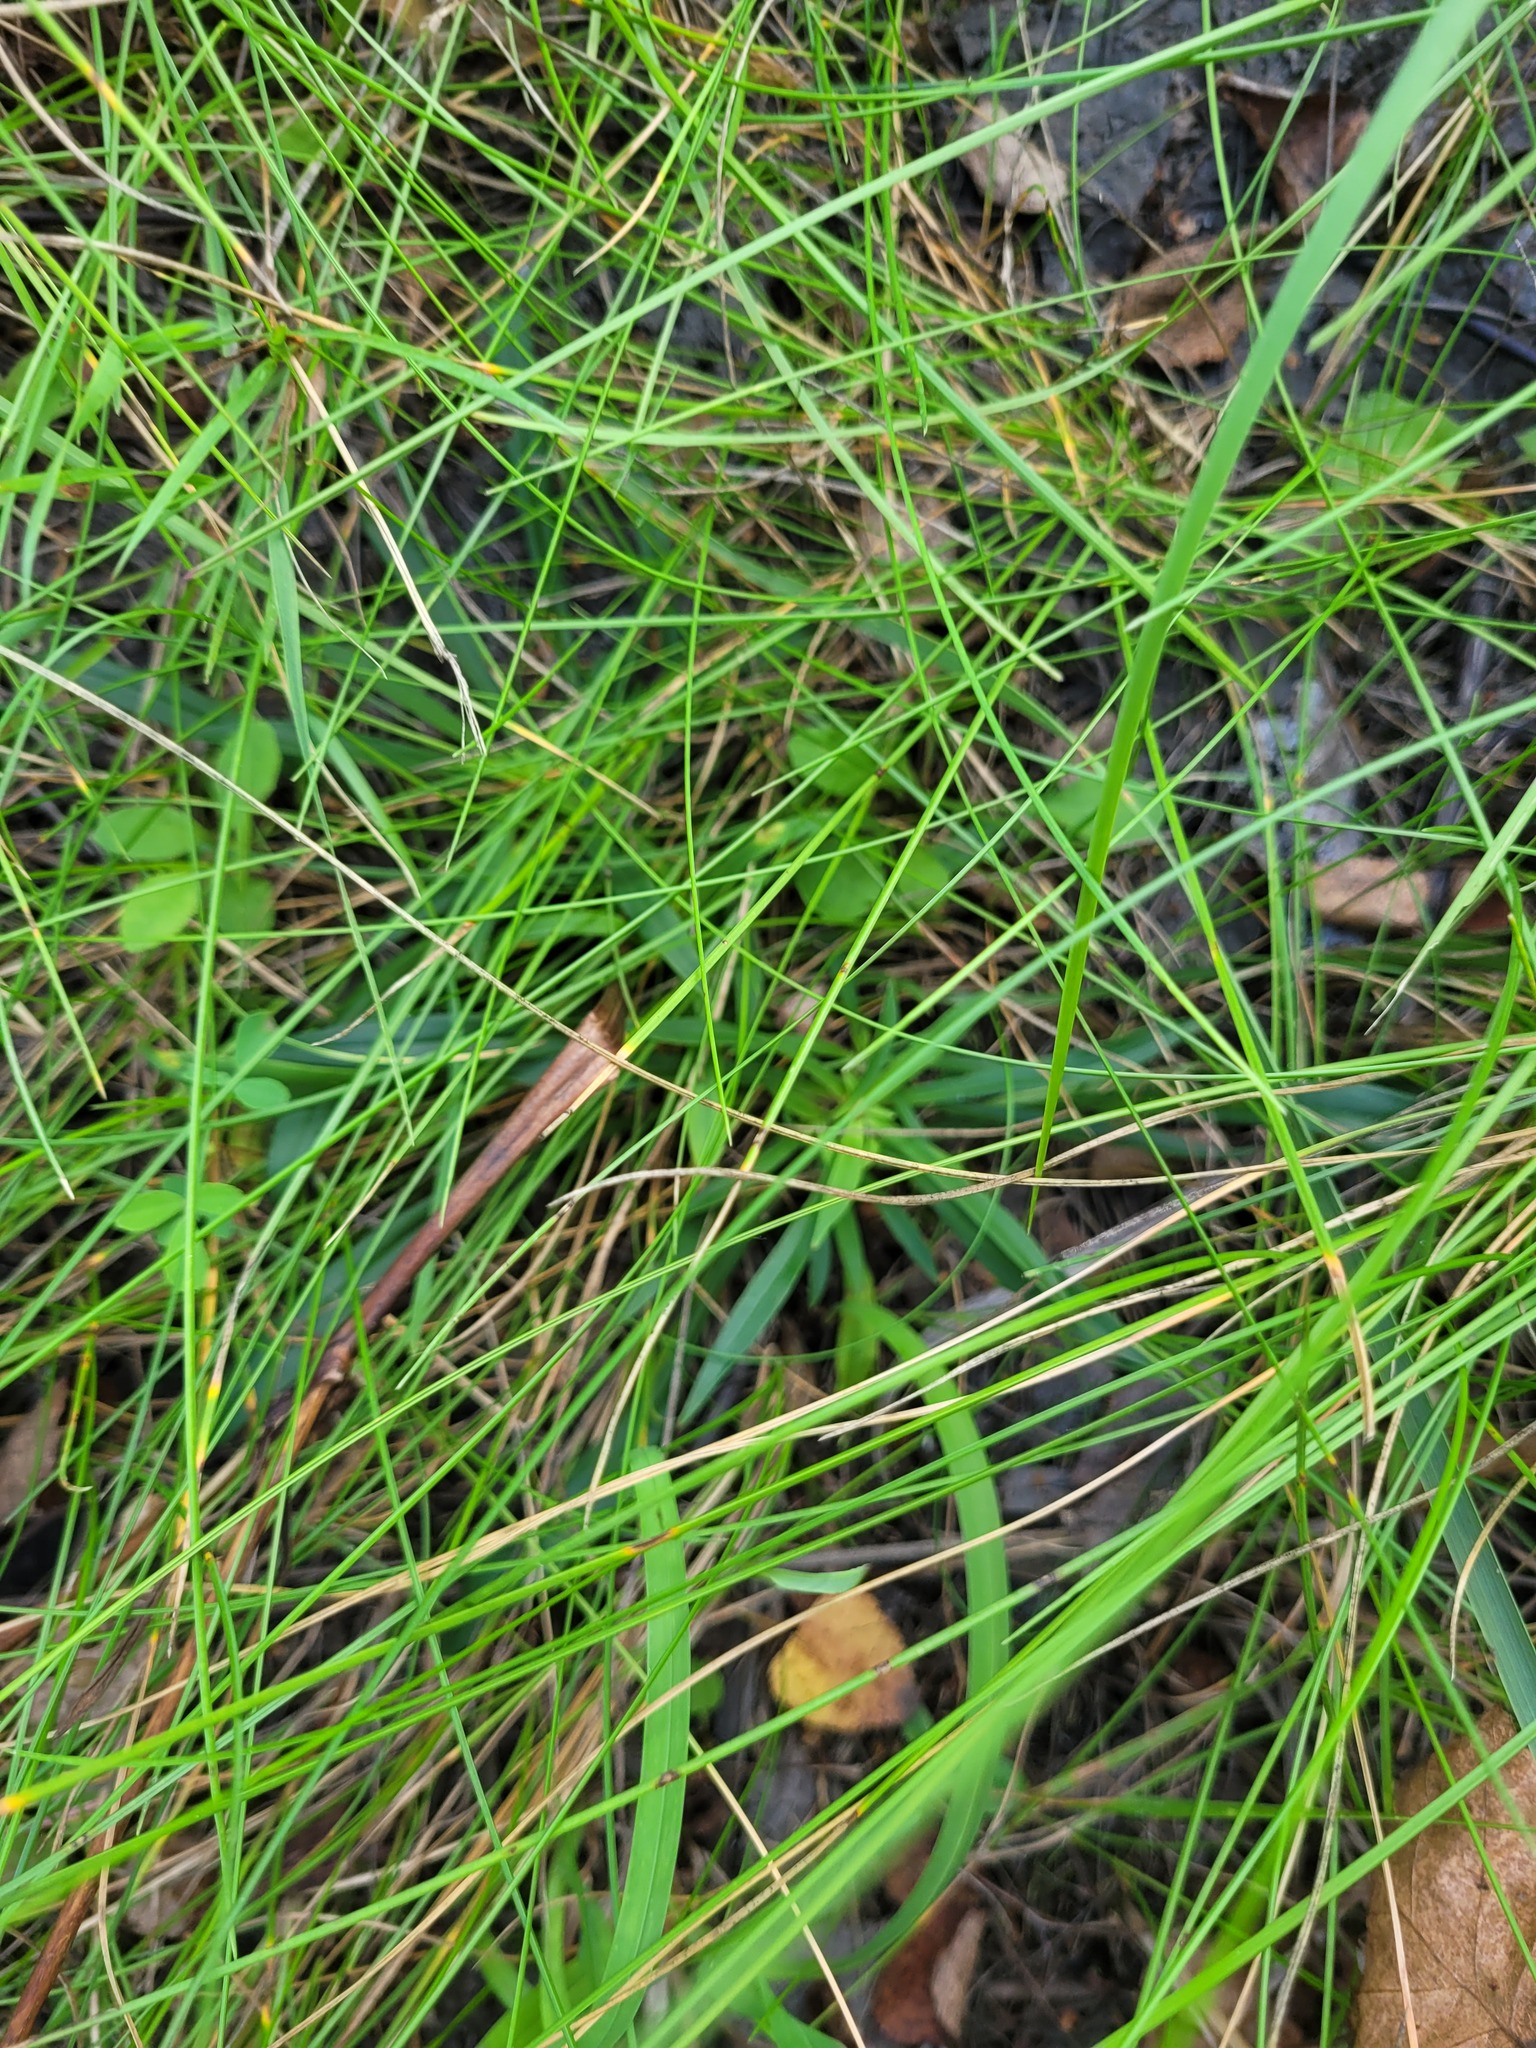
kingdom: Plantae
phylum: Tracheophyta
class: Magnoliopsida
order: Caryophyllales
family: Caryophyllaceae
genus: Viscaria
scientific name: Viscaria vulgaris
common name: Clammy campion
